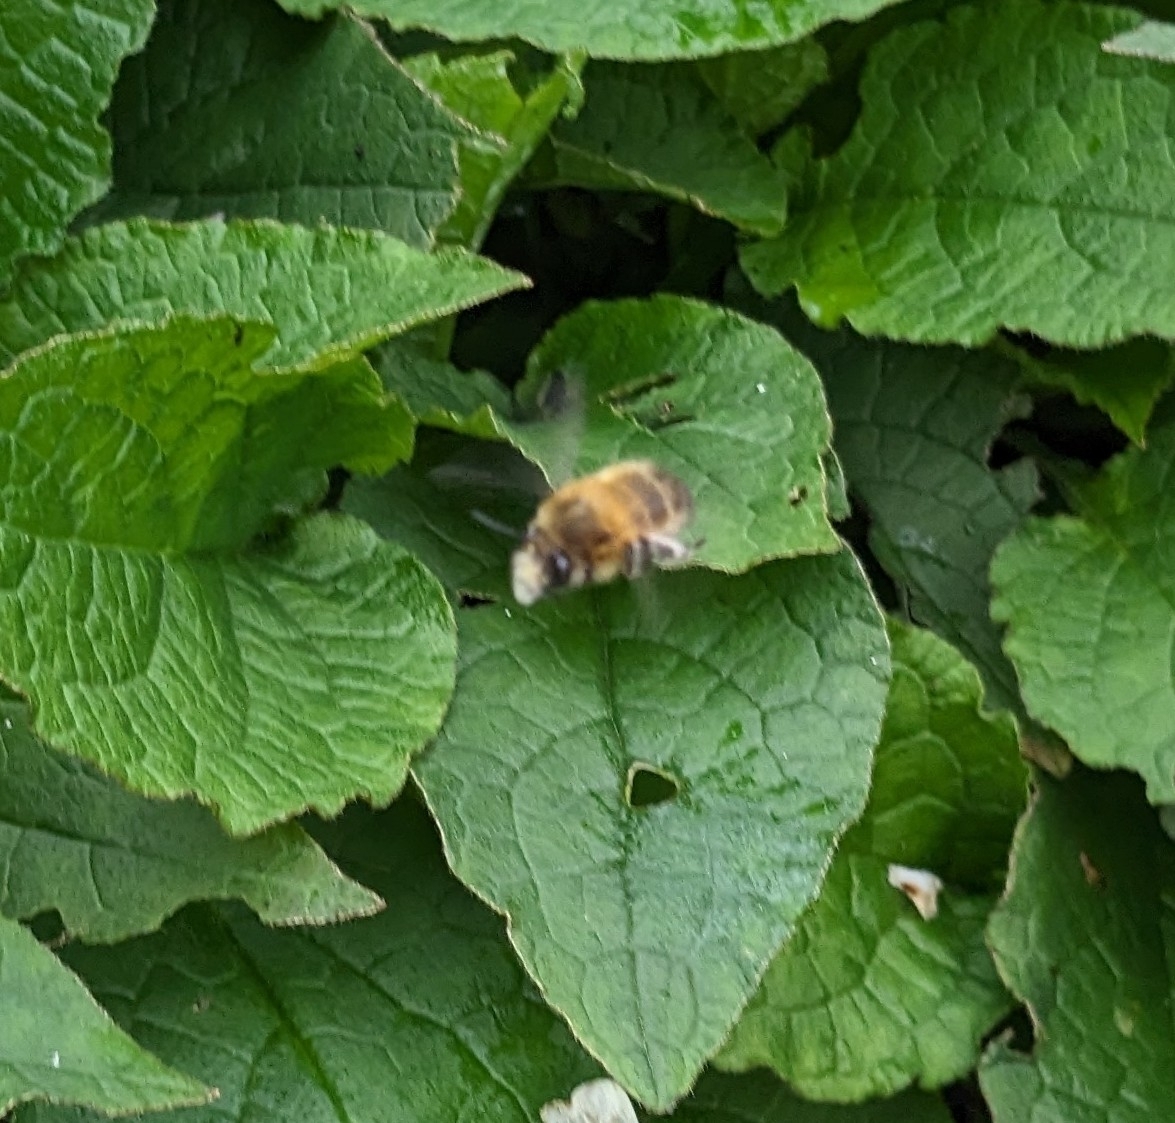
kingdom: Animalia
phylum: Arthropoda
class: Insecta
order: Hymenoptera
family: Apidae
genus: Anthophora
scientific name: Anthophora plumipes
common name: Hairy-footed flower bee
